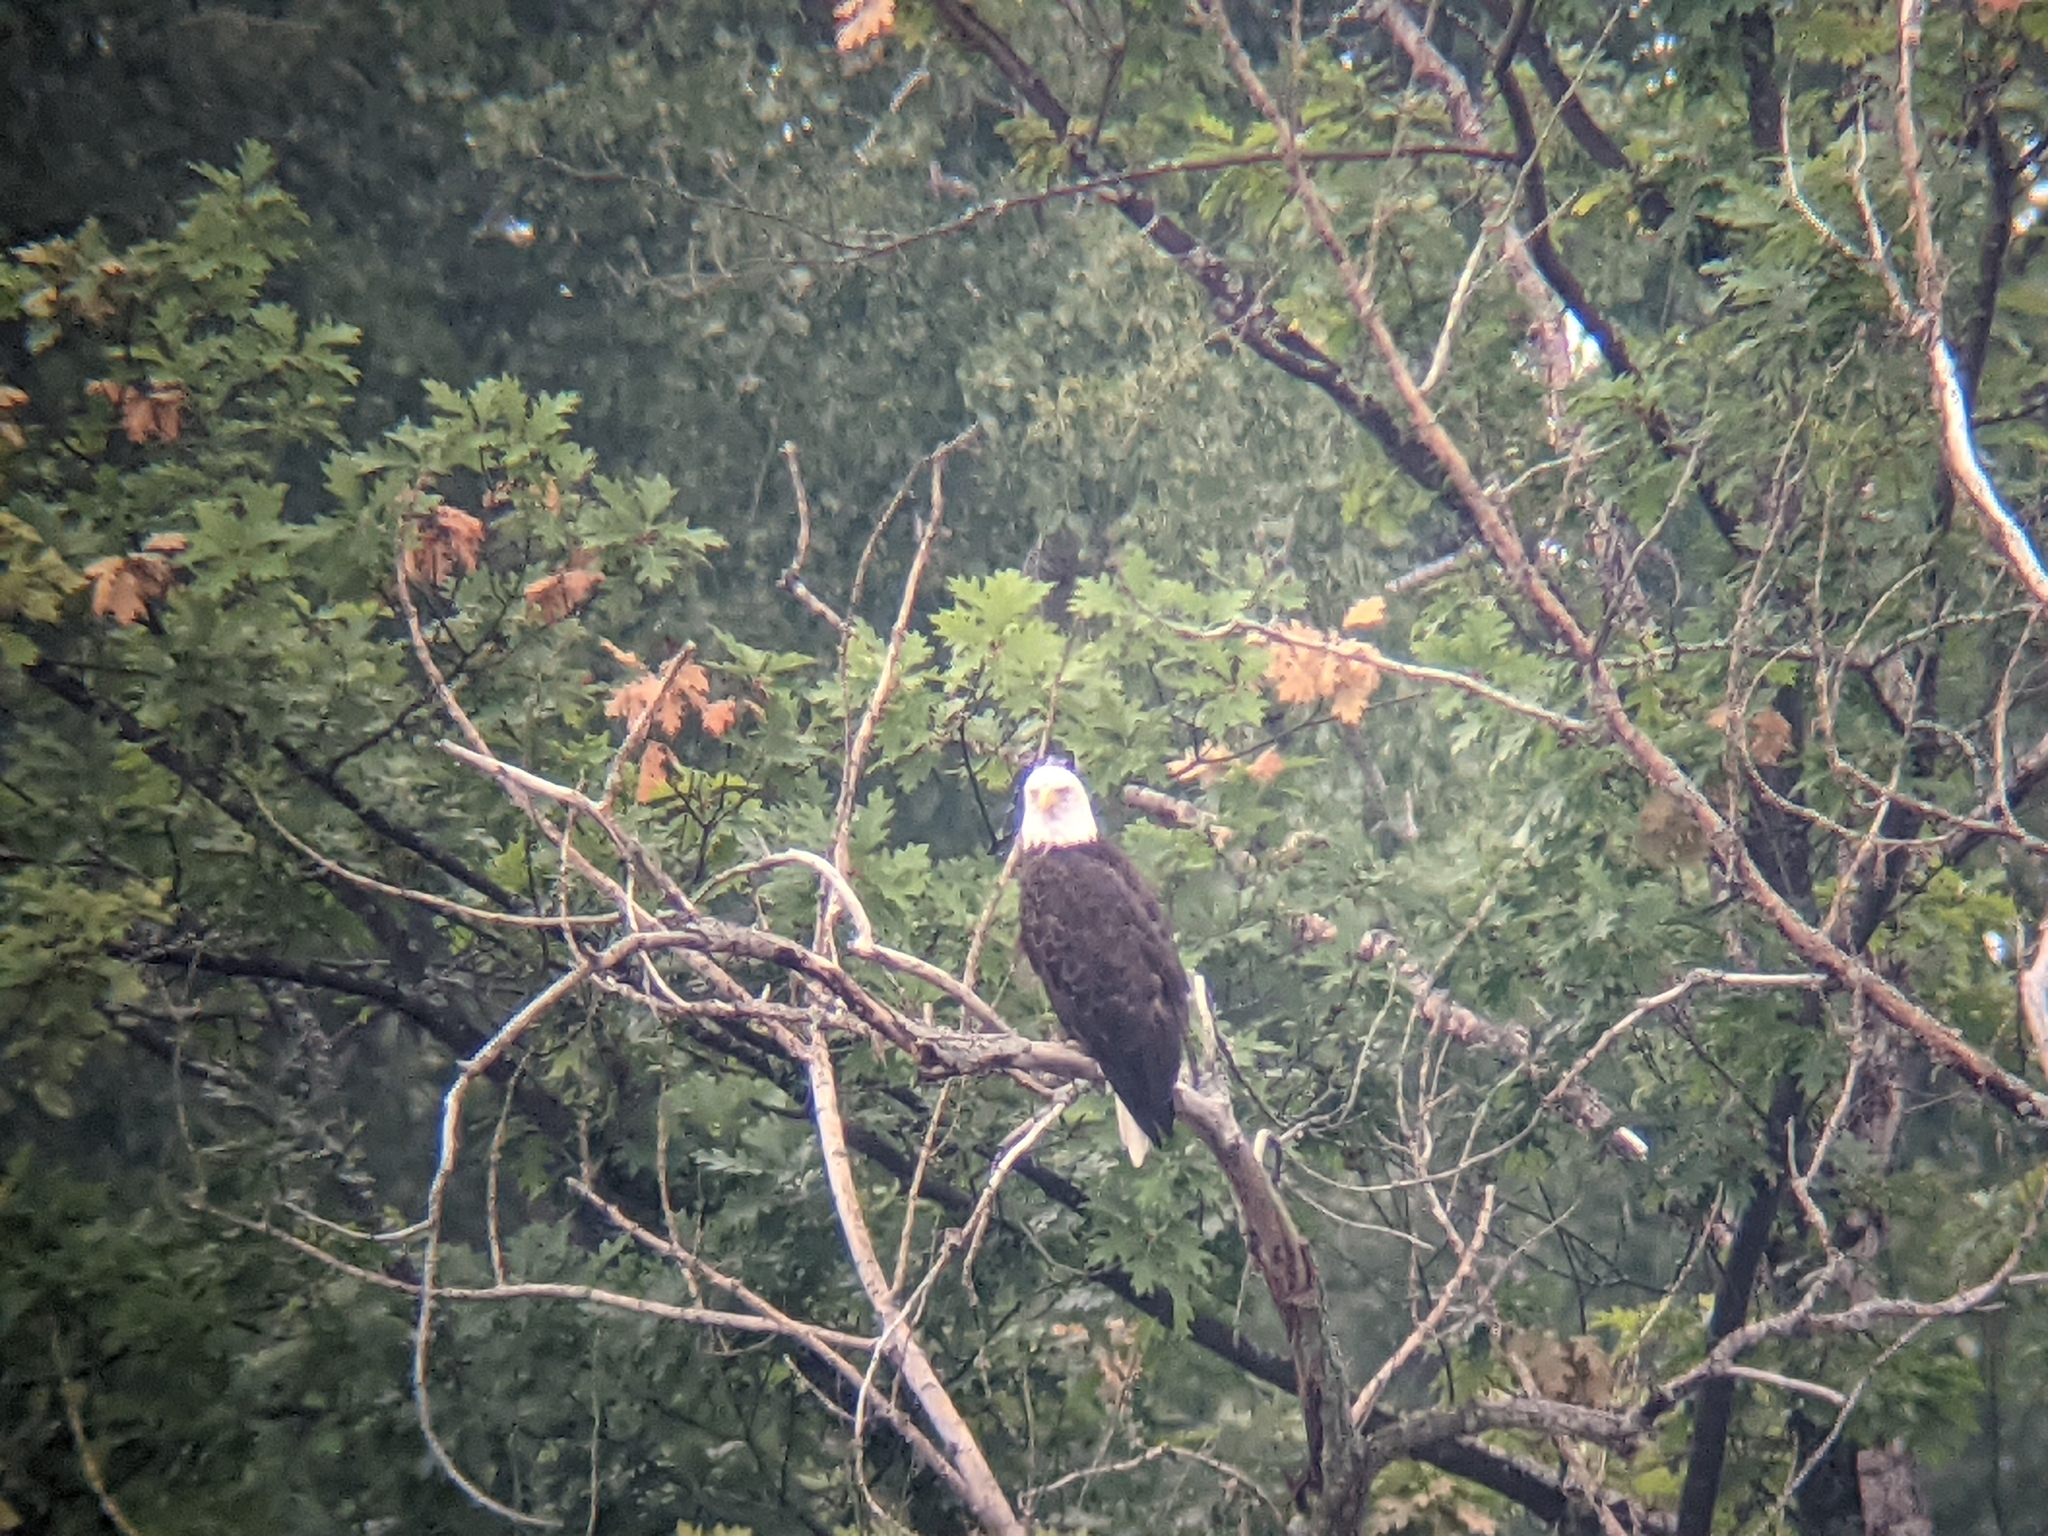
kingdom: Animalia
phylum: Chordata
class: Aves
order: Accipitriformes
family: Accipitridae
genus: Haliaeetus
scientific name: Haliaeetus leucocephalus
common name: Bald eagle
